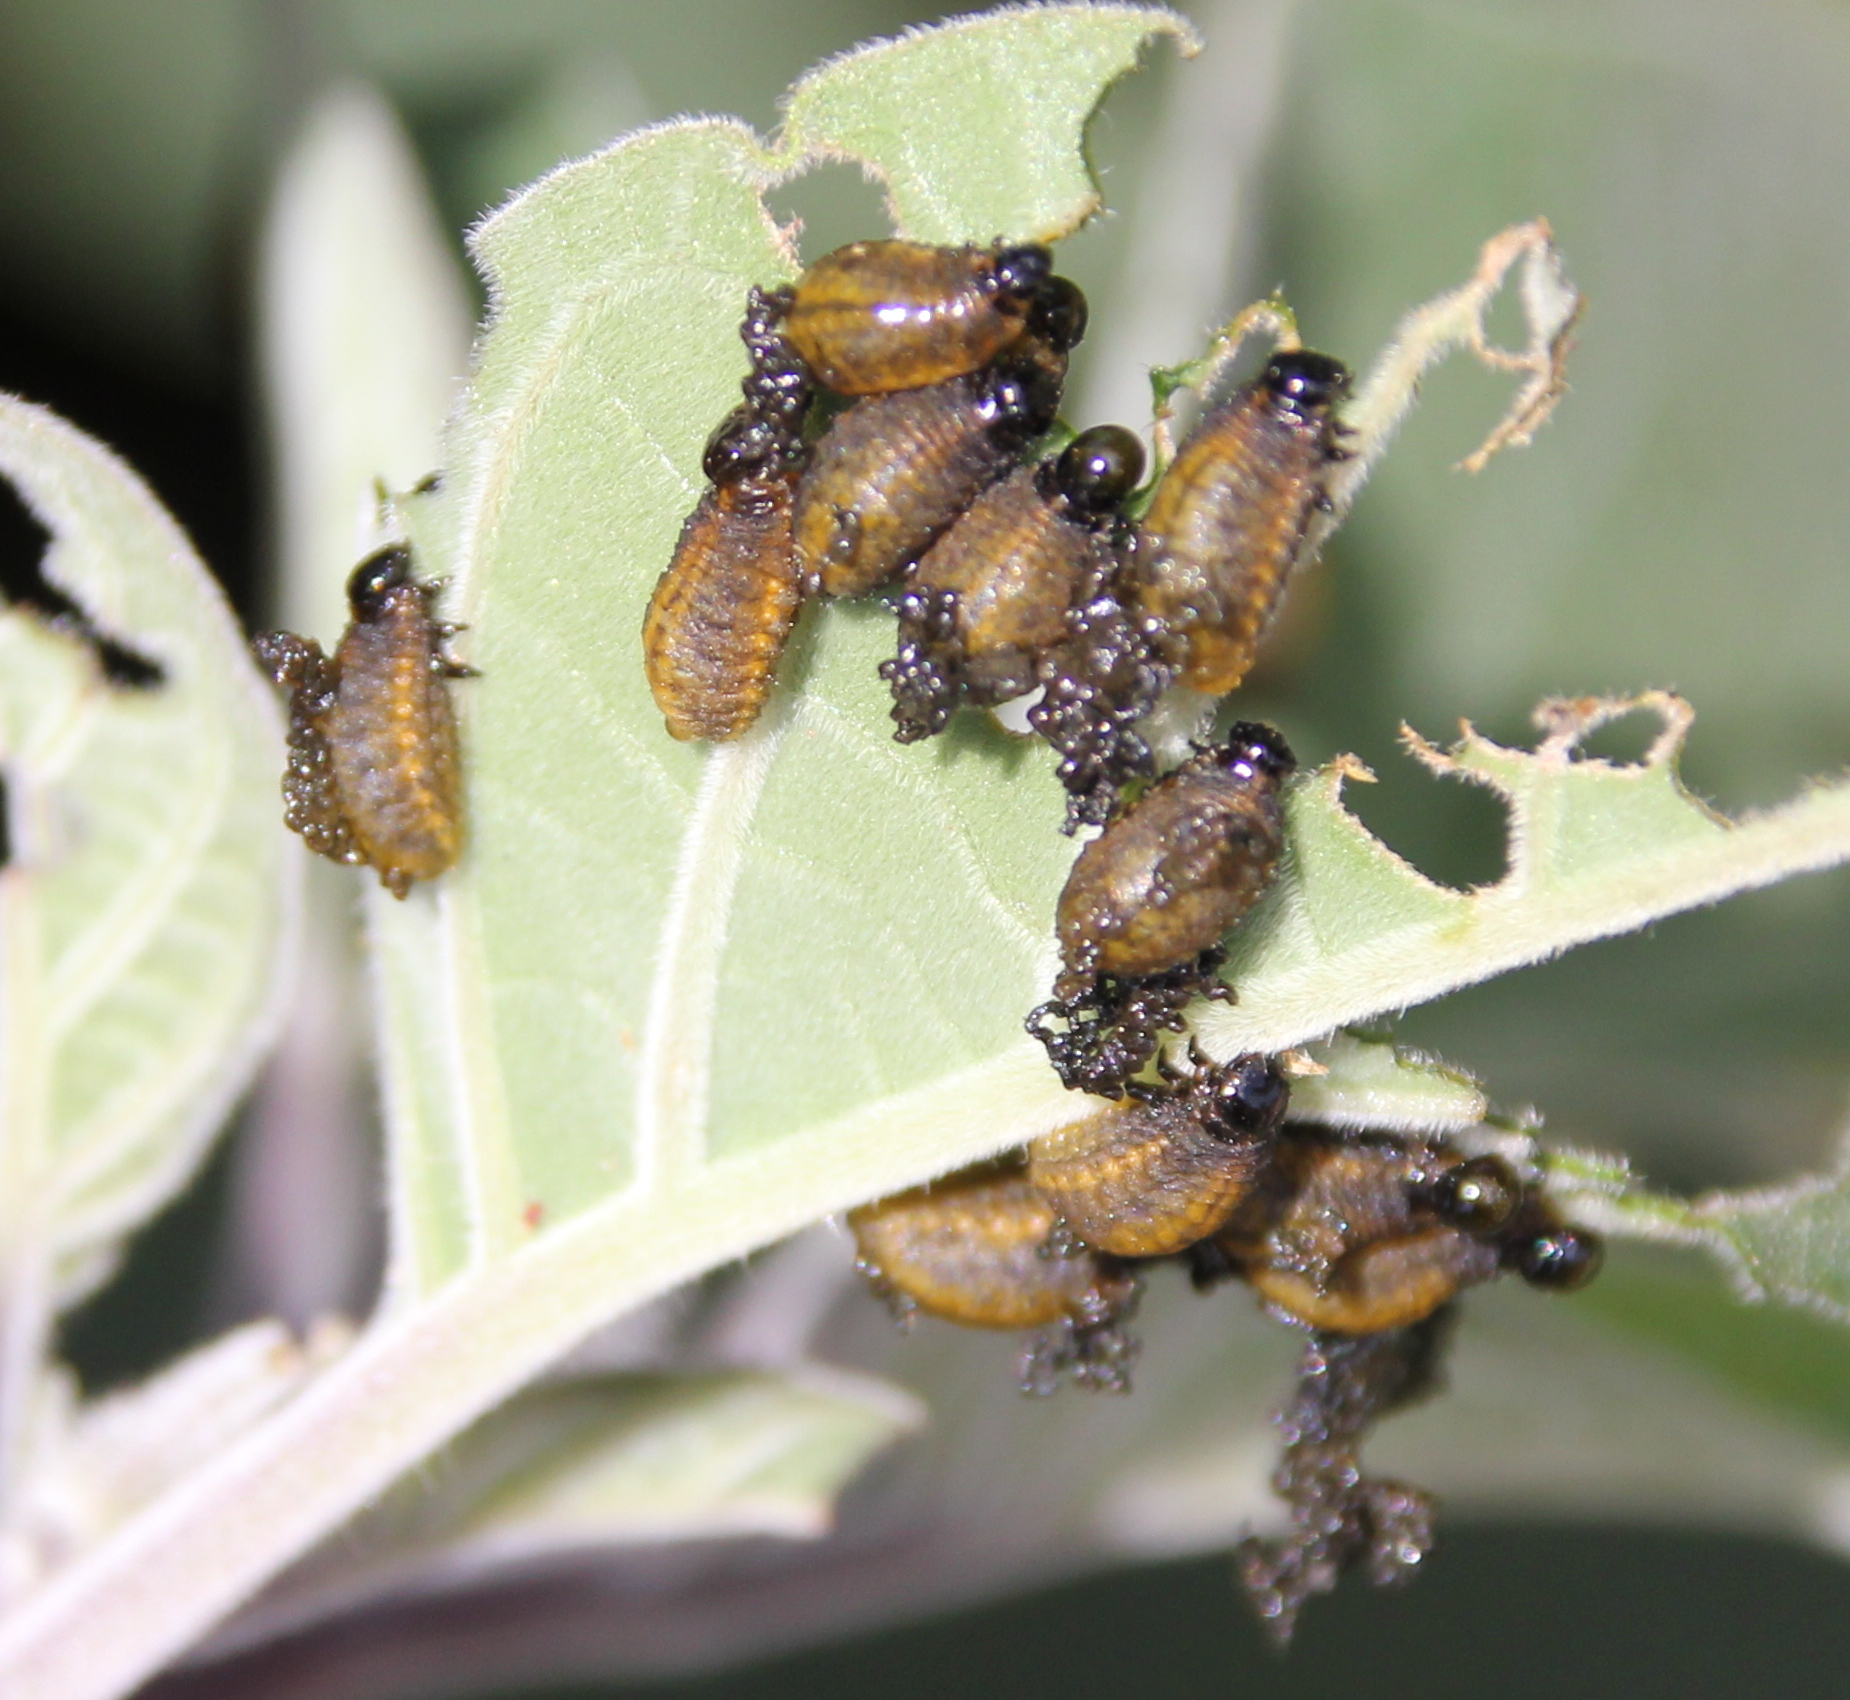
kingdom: Animalia
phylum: Arthropoda
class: Insecta
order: Coleoptera
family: Chrysomelidae
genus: Lema
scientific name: Lema daturaphila
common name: Leaf beetle
